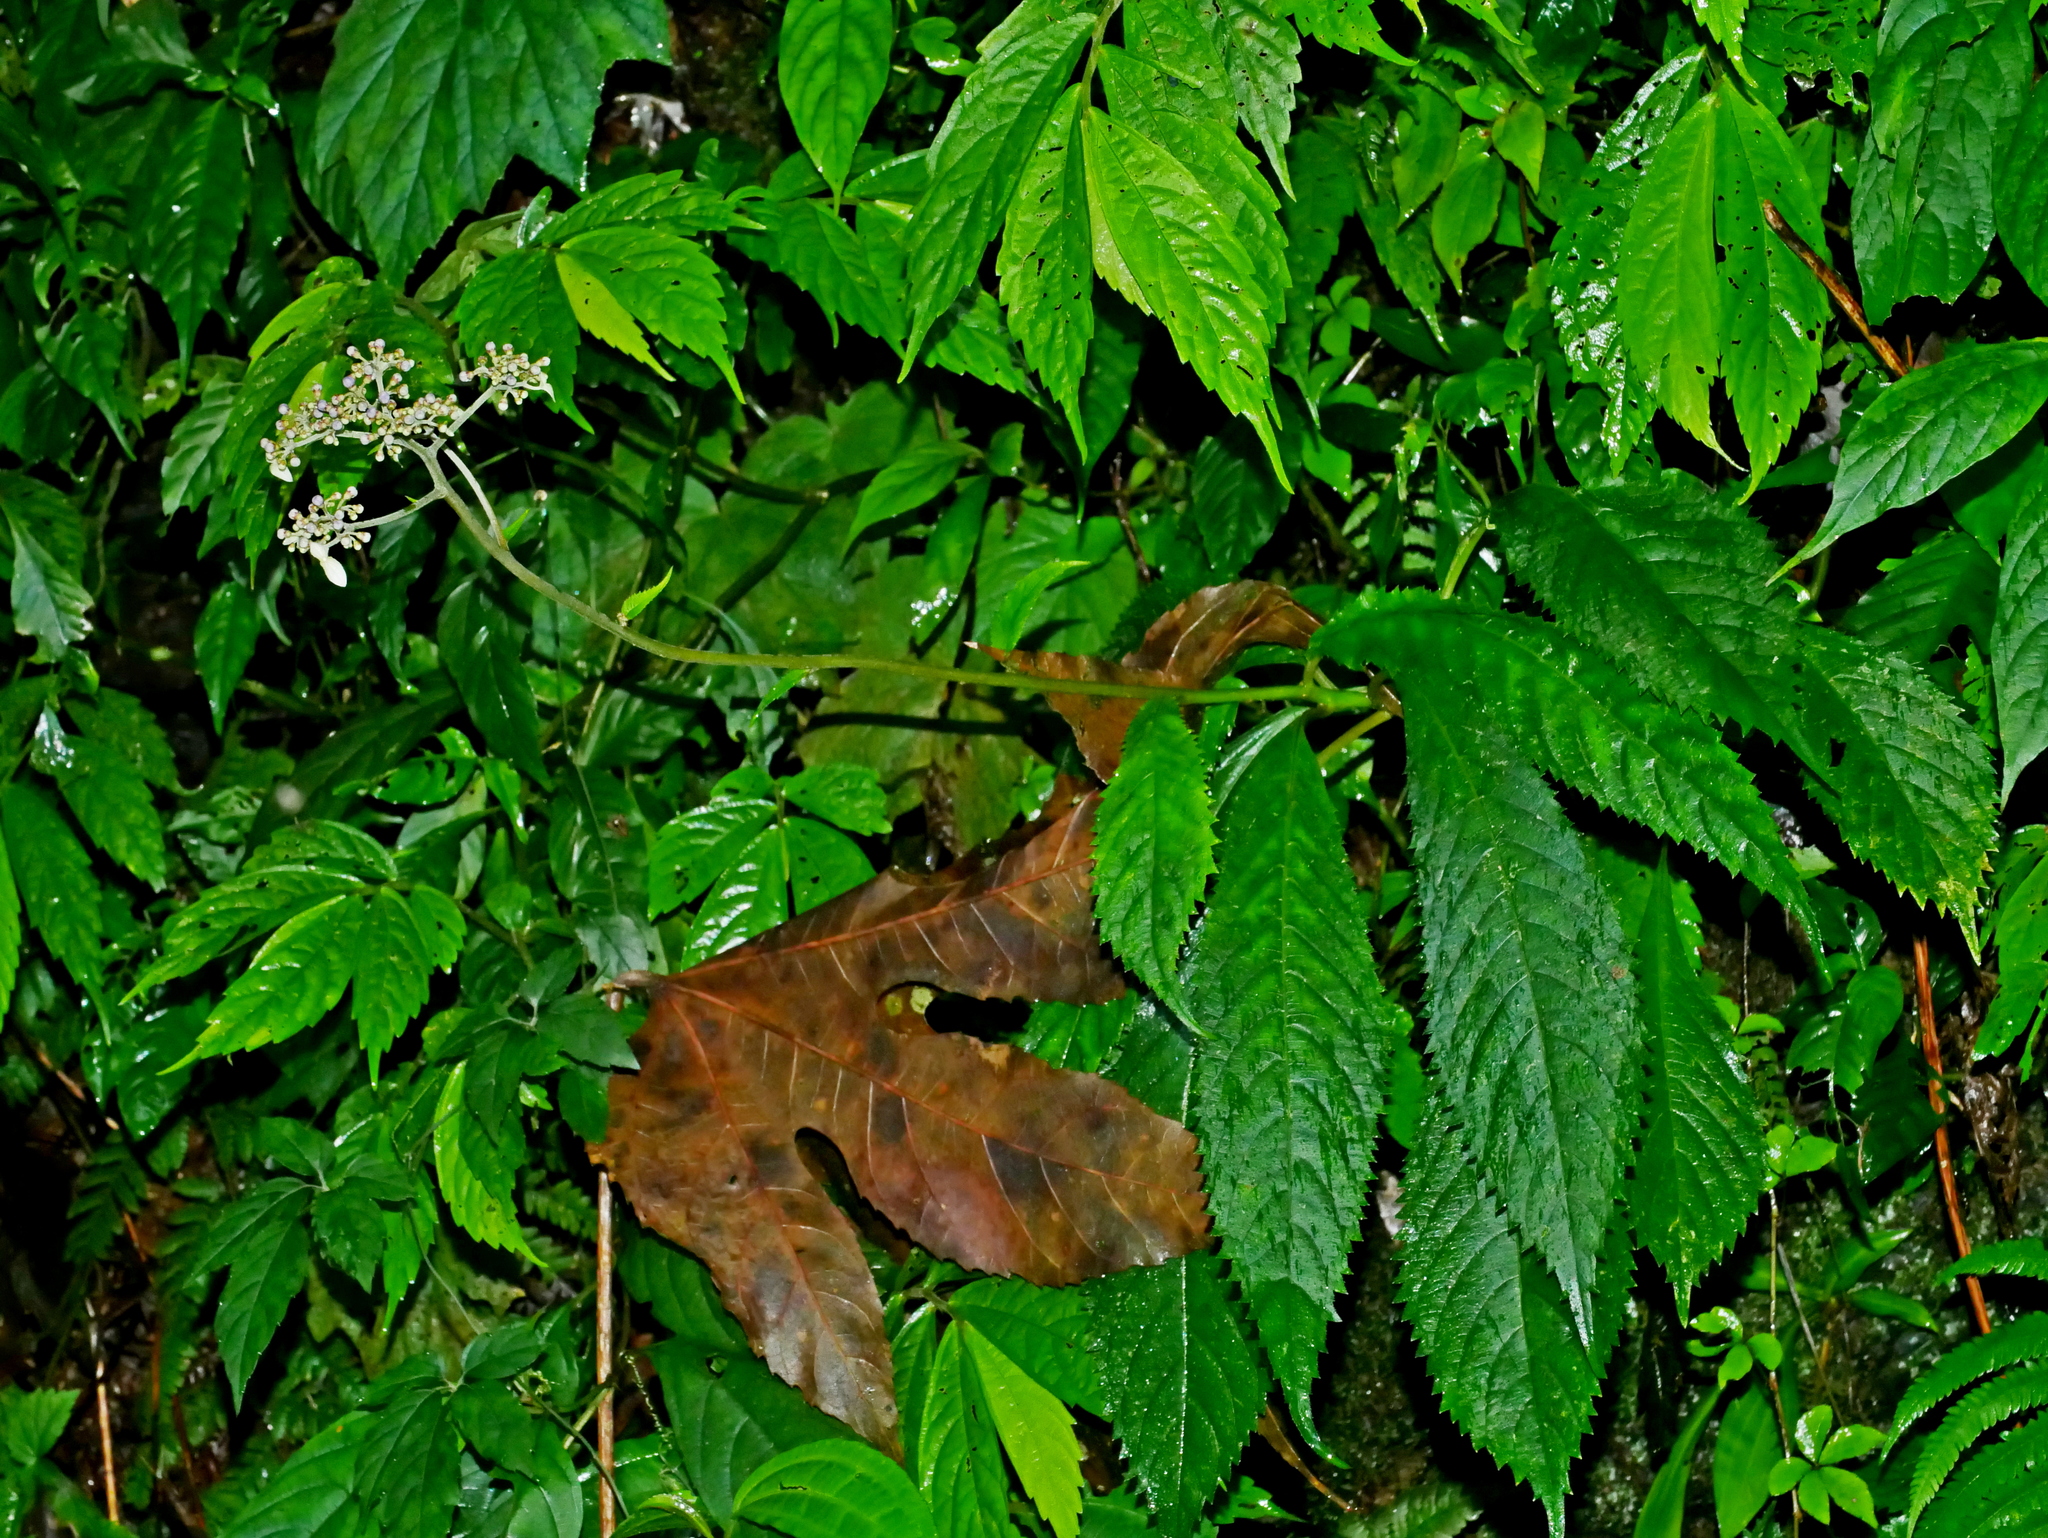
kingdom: Plantae
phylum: Tracheophyta
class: Magnoliopsida
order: Cornales
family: Hydrangeaceae
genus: Hydrangea
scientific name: Hydrangea densifolia
